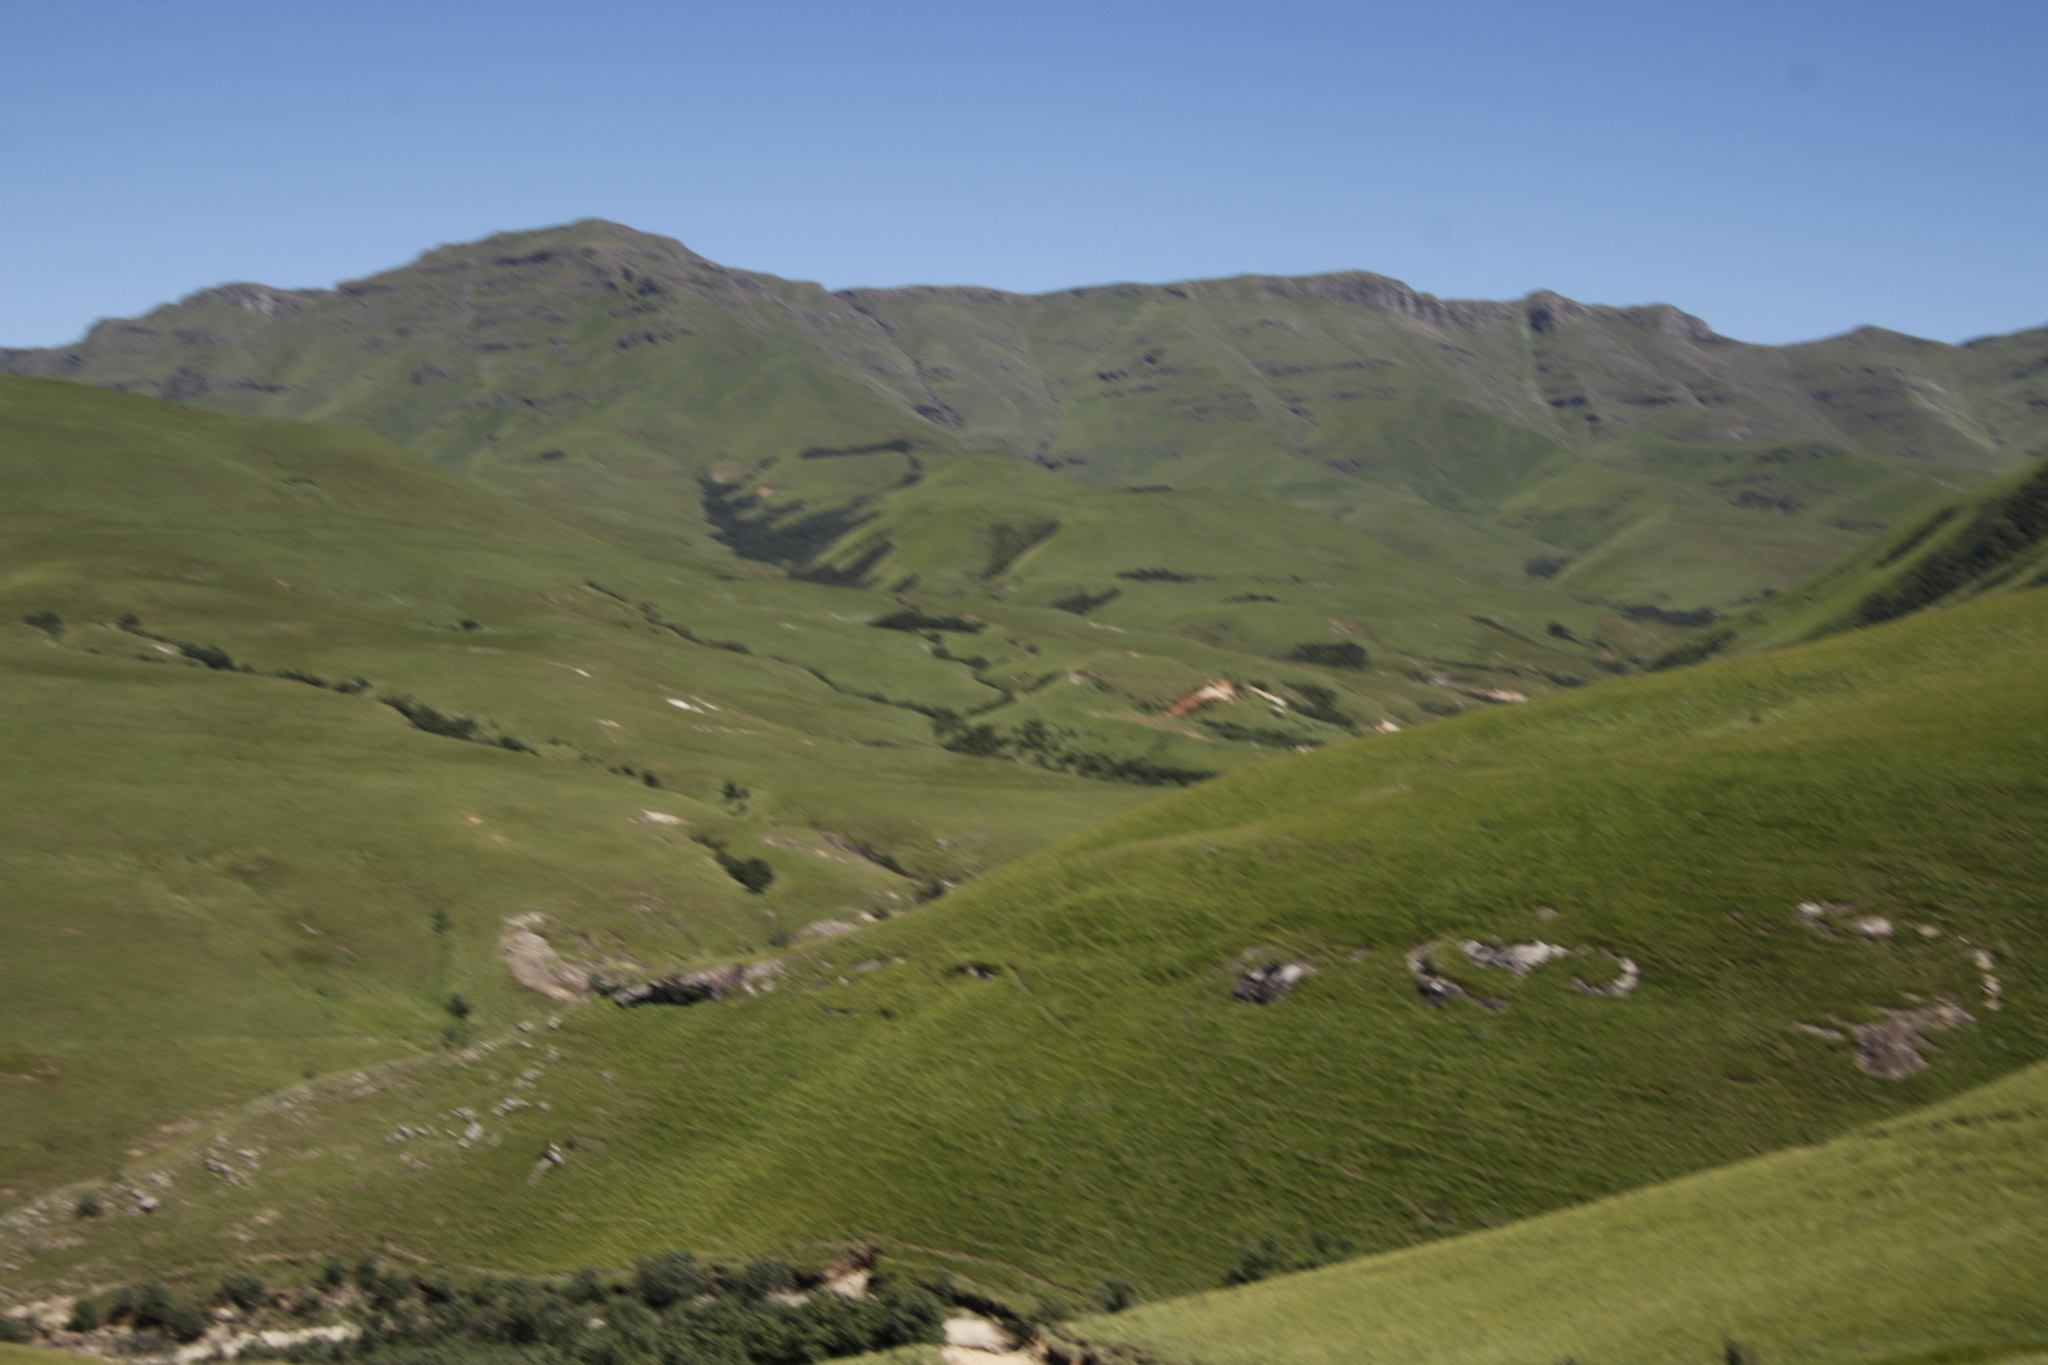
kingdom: Plantae
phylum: Tracheophyta
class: Magnoliopsida
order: Rosales
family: Rosaceae
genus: Leucosidea
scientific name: Leucosidea sericea
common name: Oldwood
